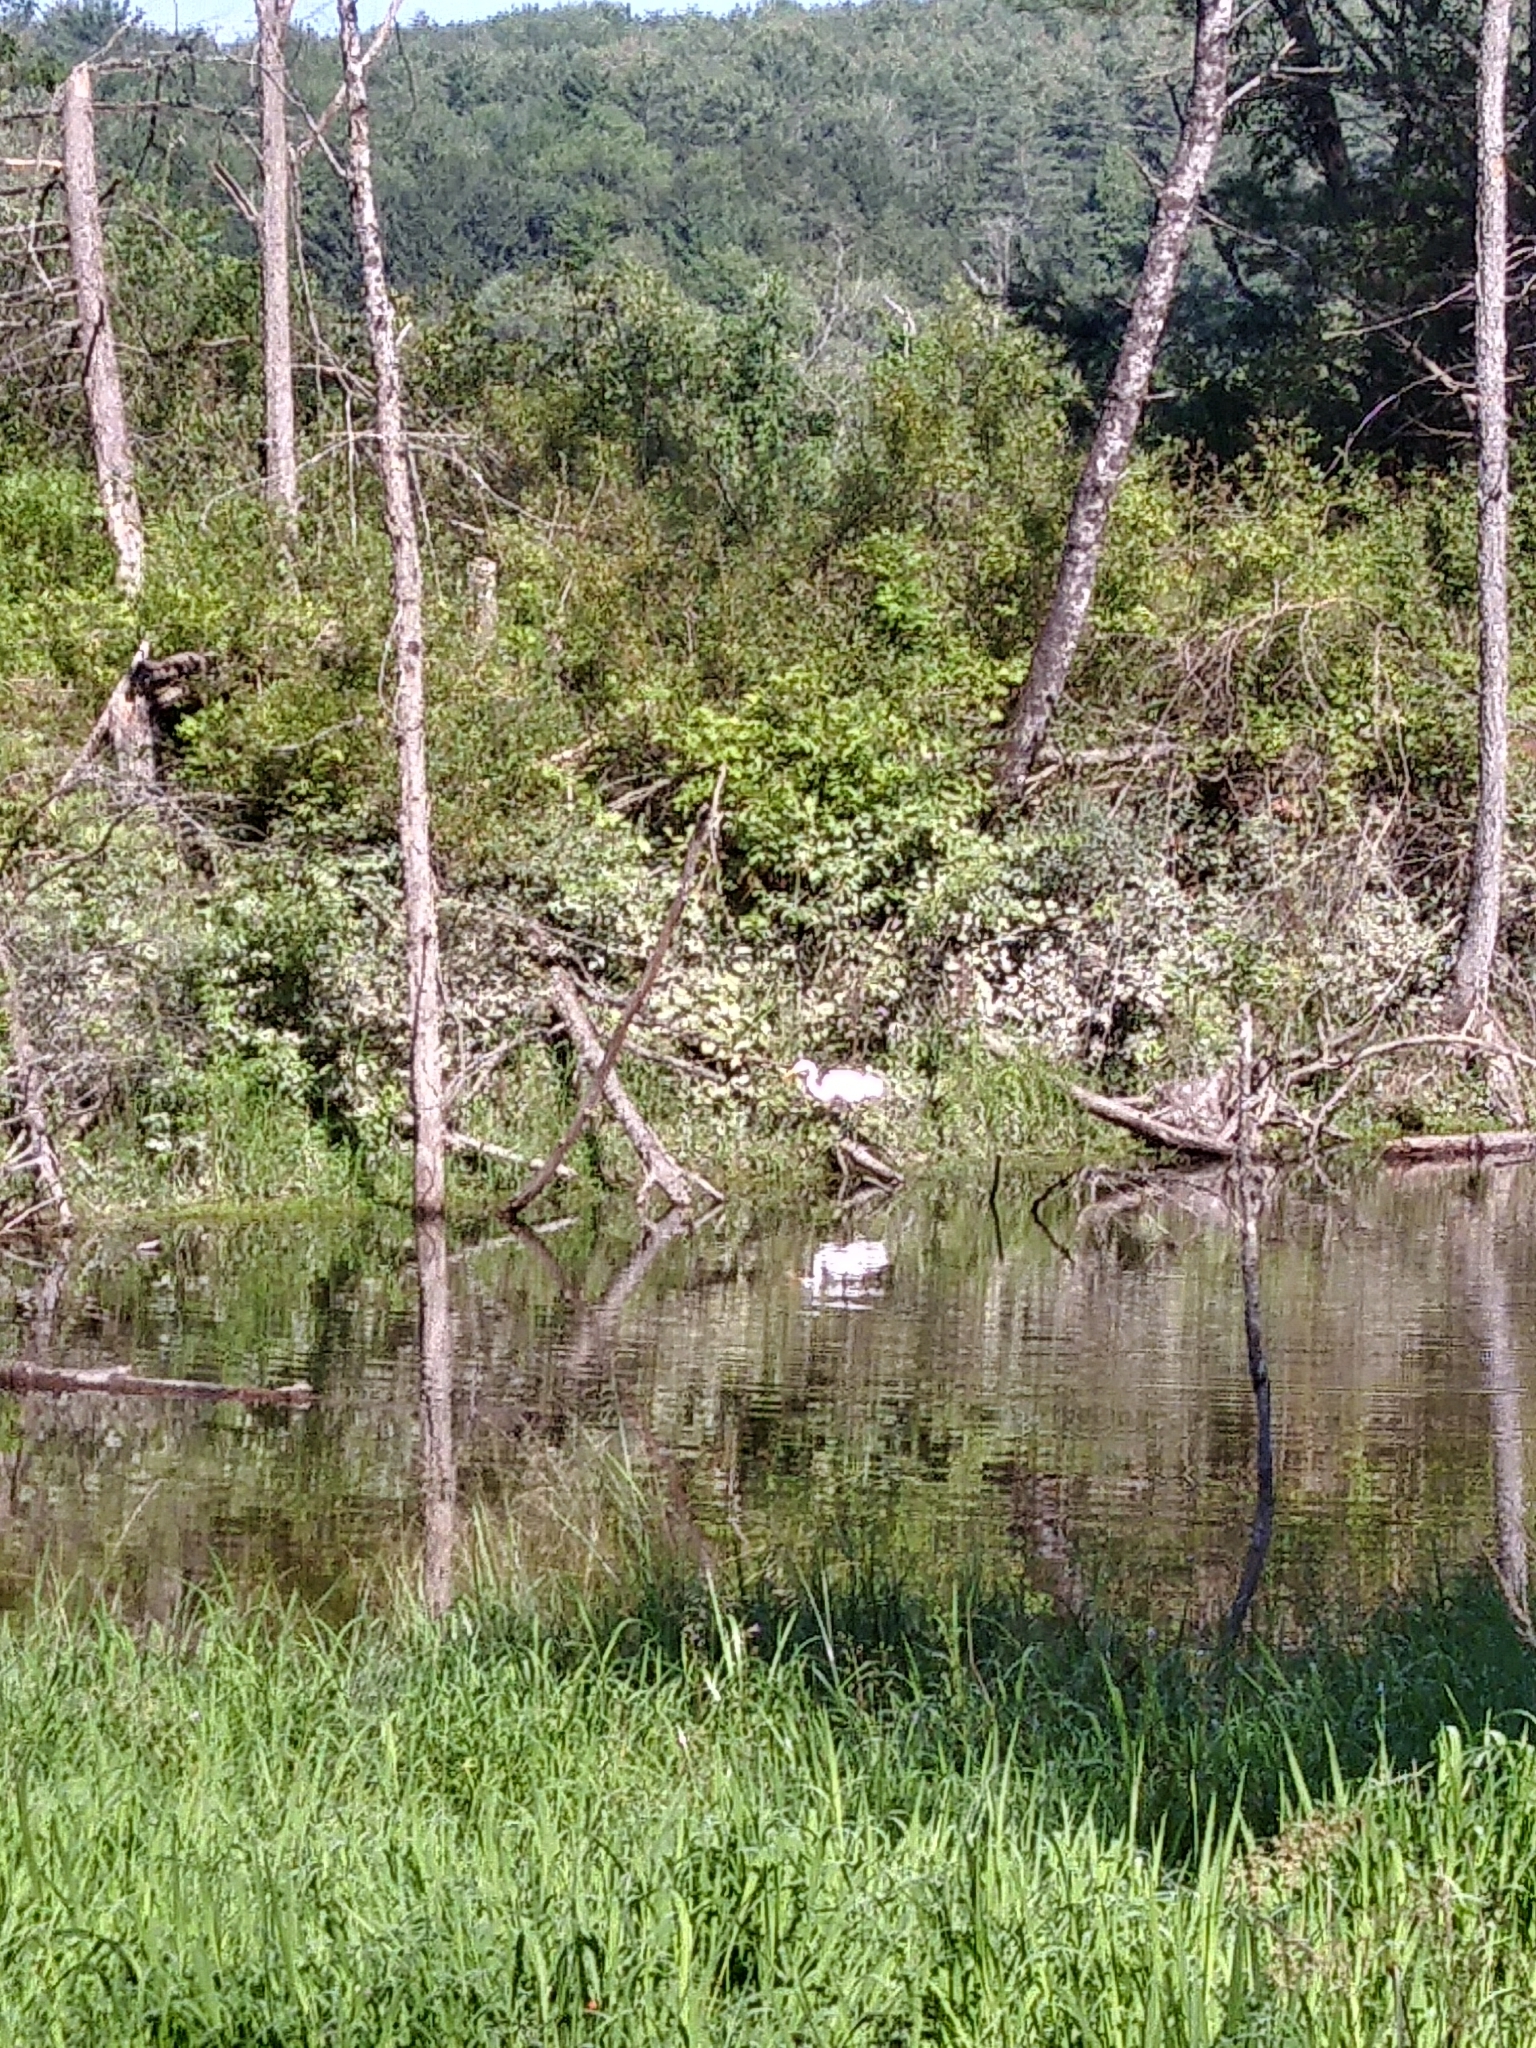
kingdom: Animalia
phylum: Chordata
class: Aves
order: Pelecaniformes
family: Ardeidae
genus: Ardea
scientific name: Ardea alba
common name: Great egret
